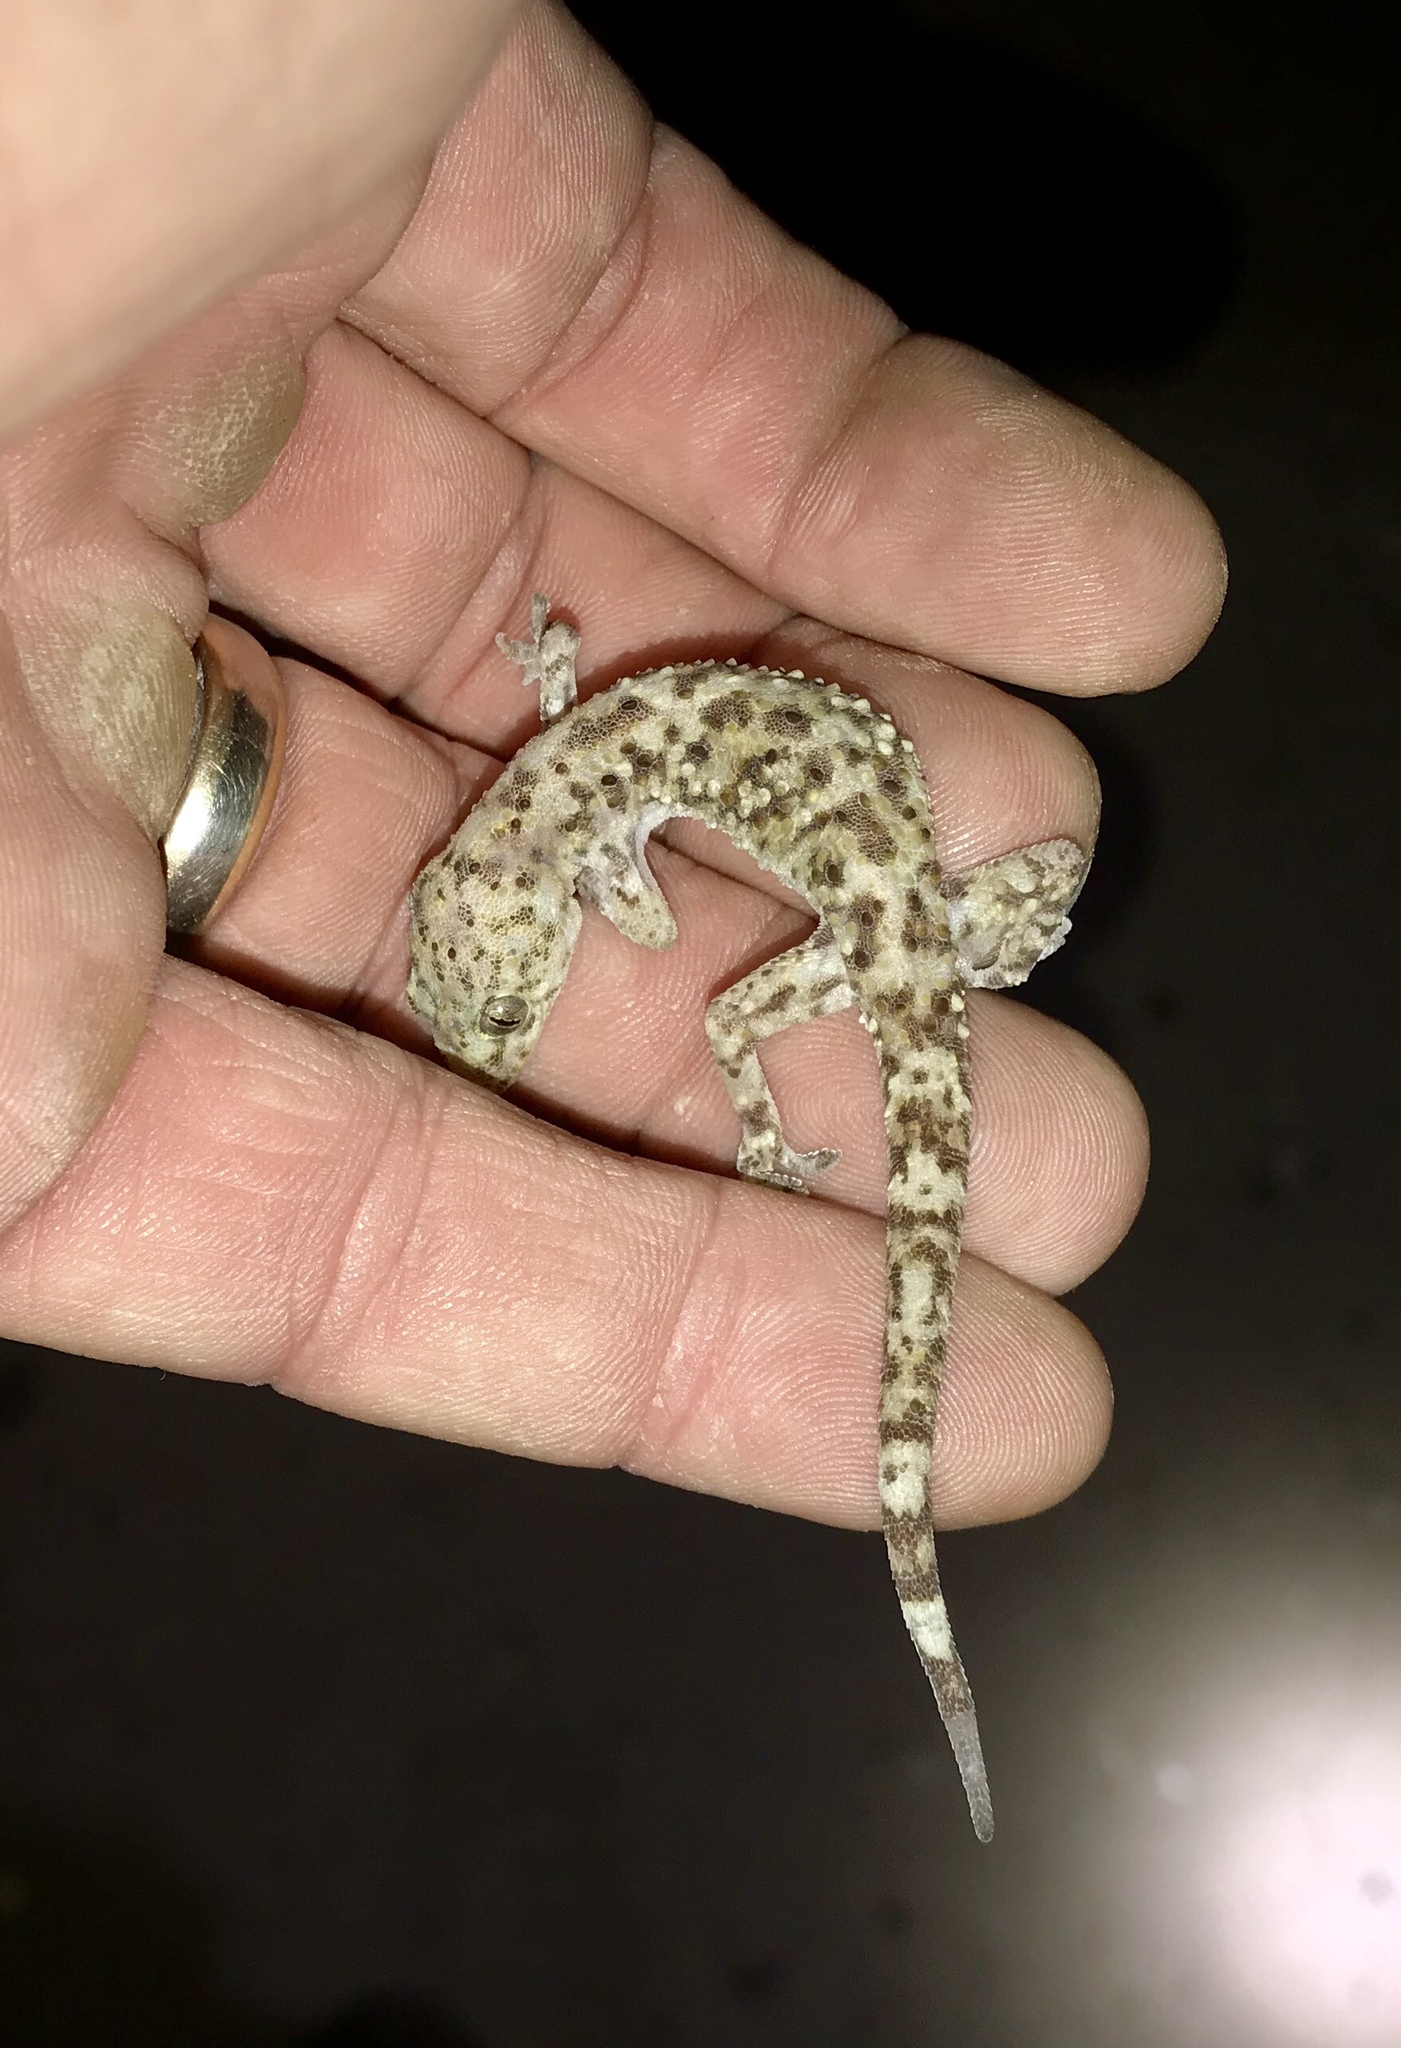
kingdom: Animalia
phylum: Chordata
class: Squamata
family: Gekkonidae
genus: Hemidactylus
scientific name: Hemidactylus turcicus
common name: Turkish gecko
